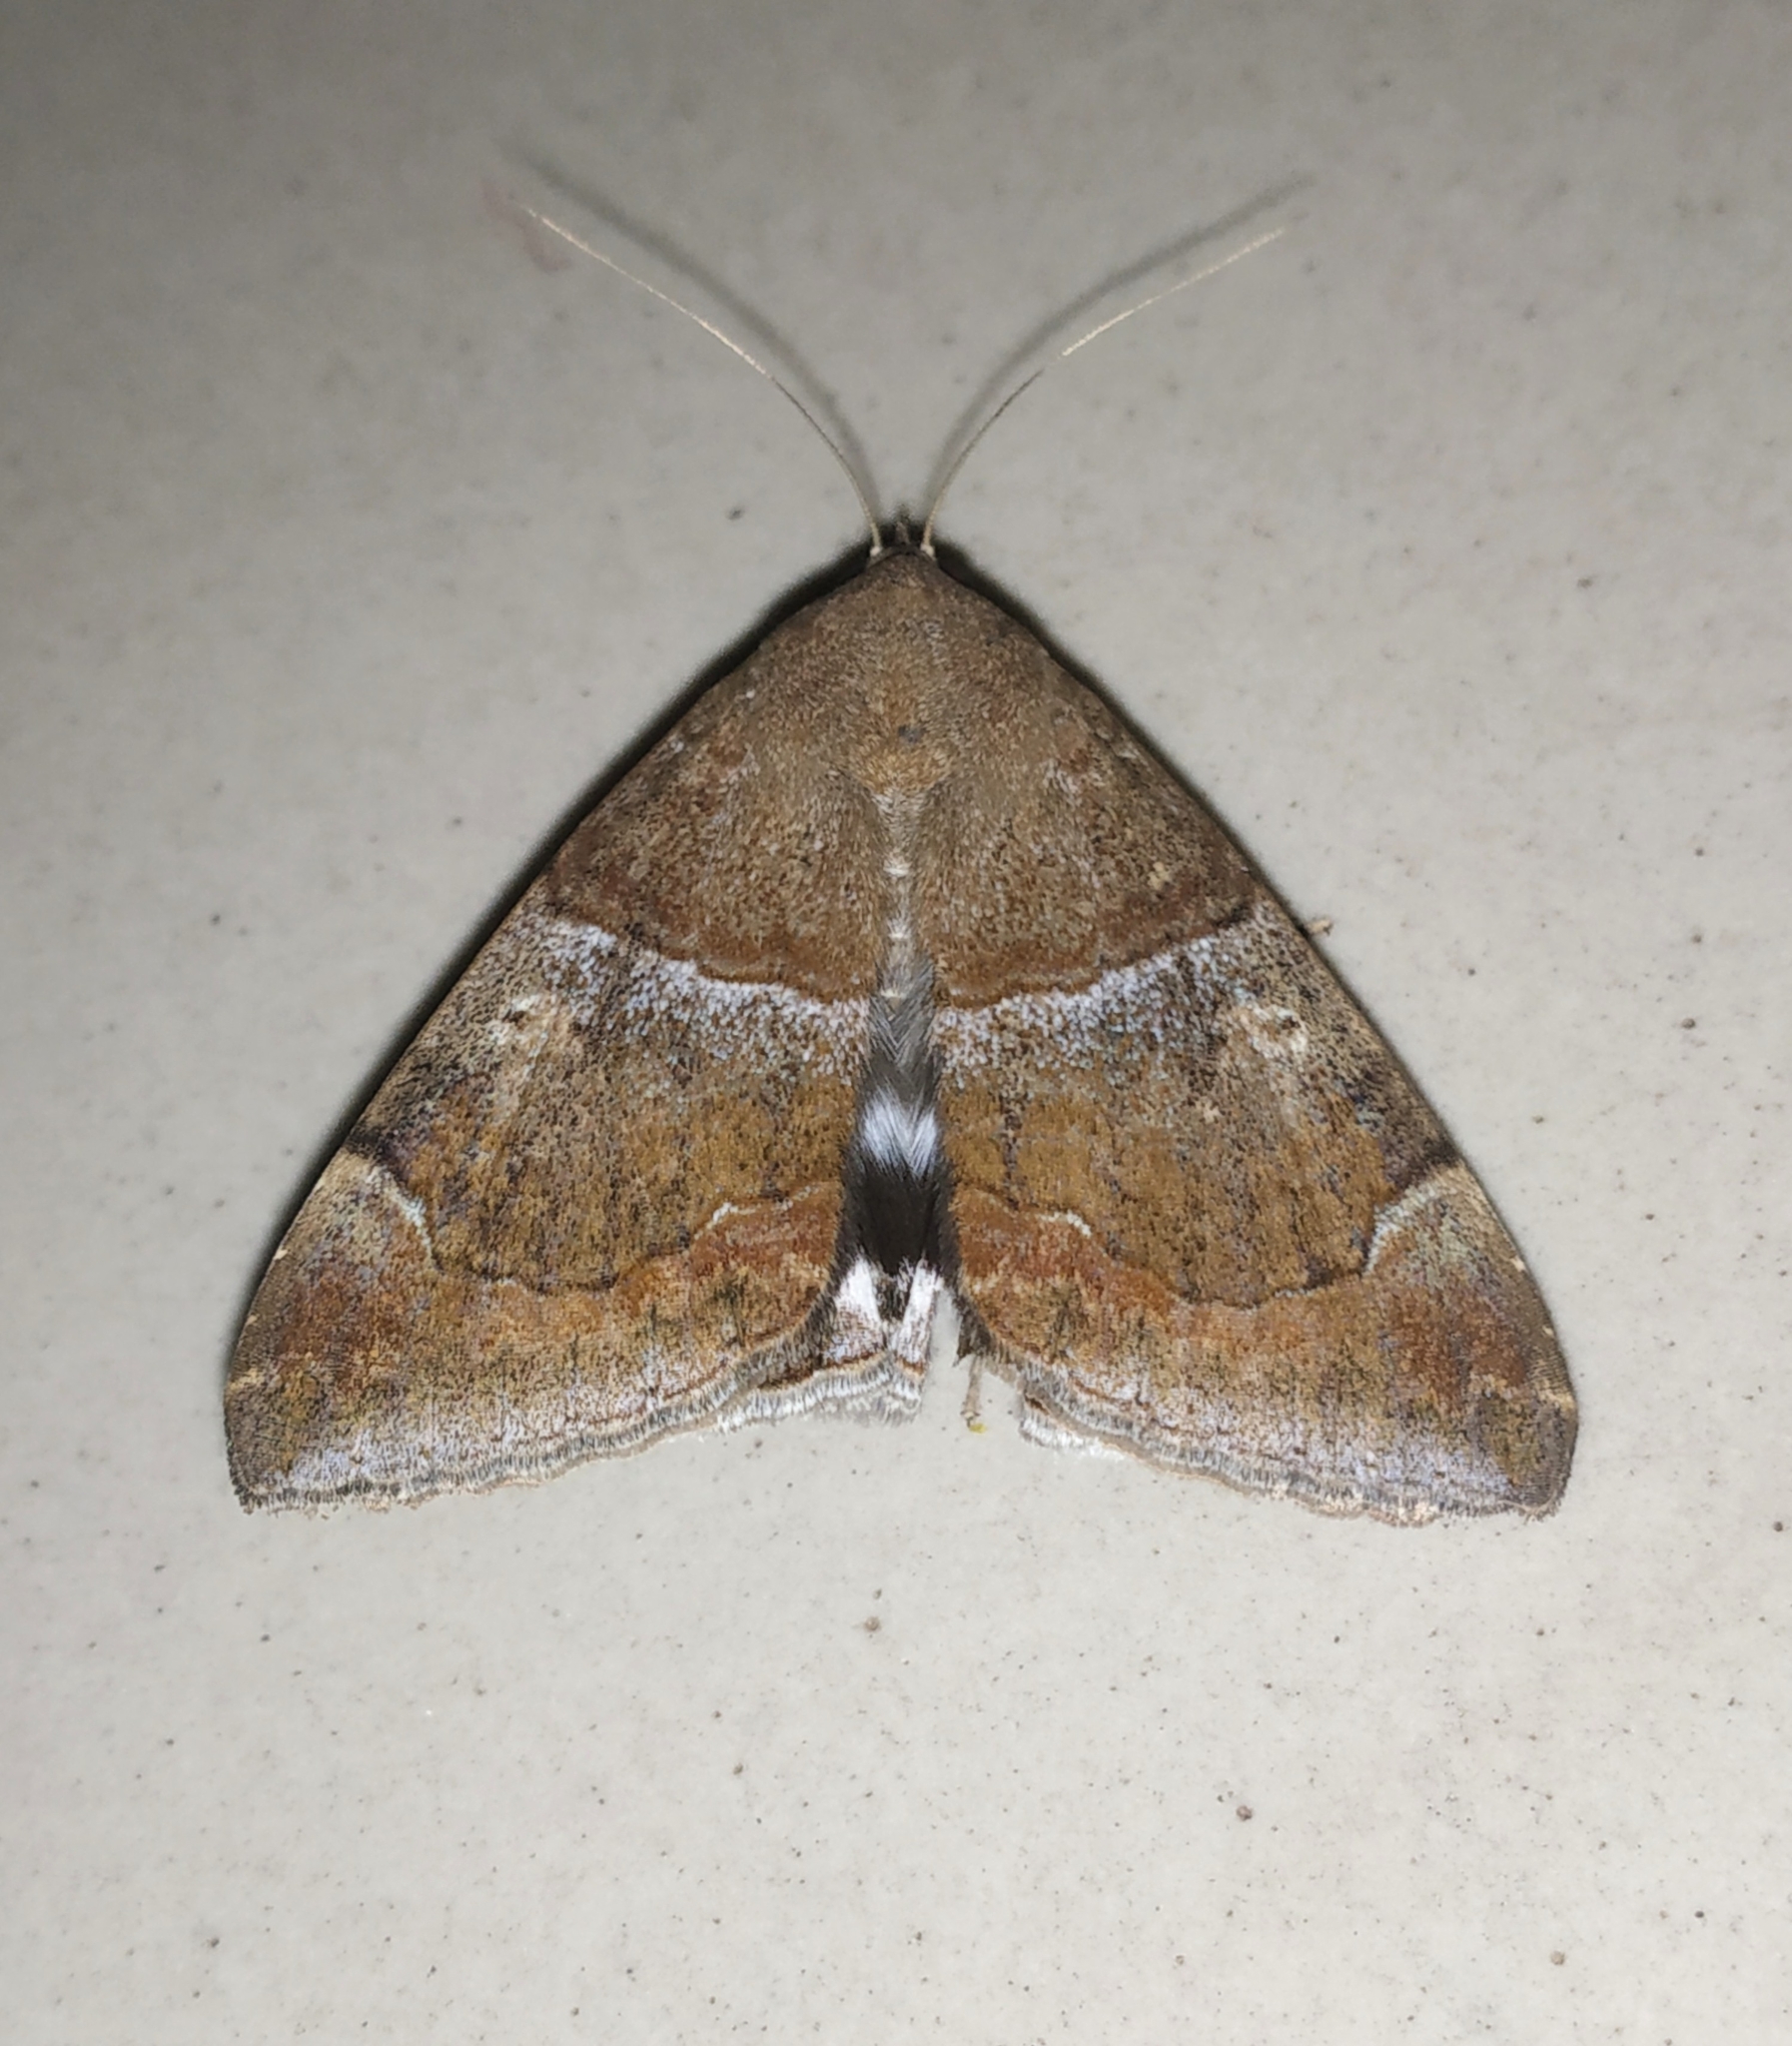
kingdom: Animalia
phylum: Arthropoda
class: Insecta
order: Lepidoptera
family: Erebidae
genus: Achaea
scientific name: Achaea janata
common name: Croton caterpillar
